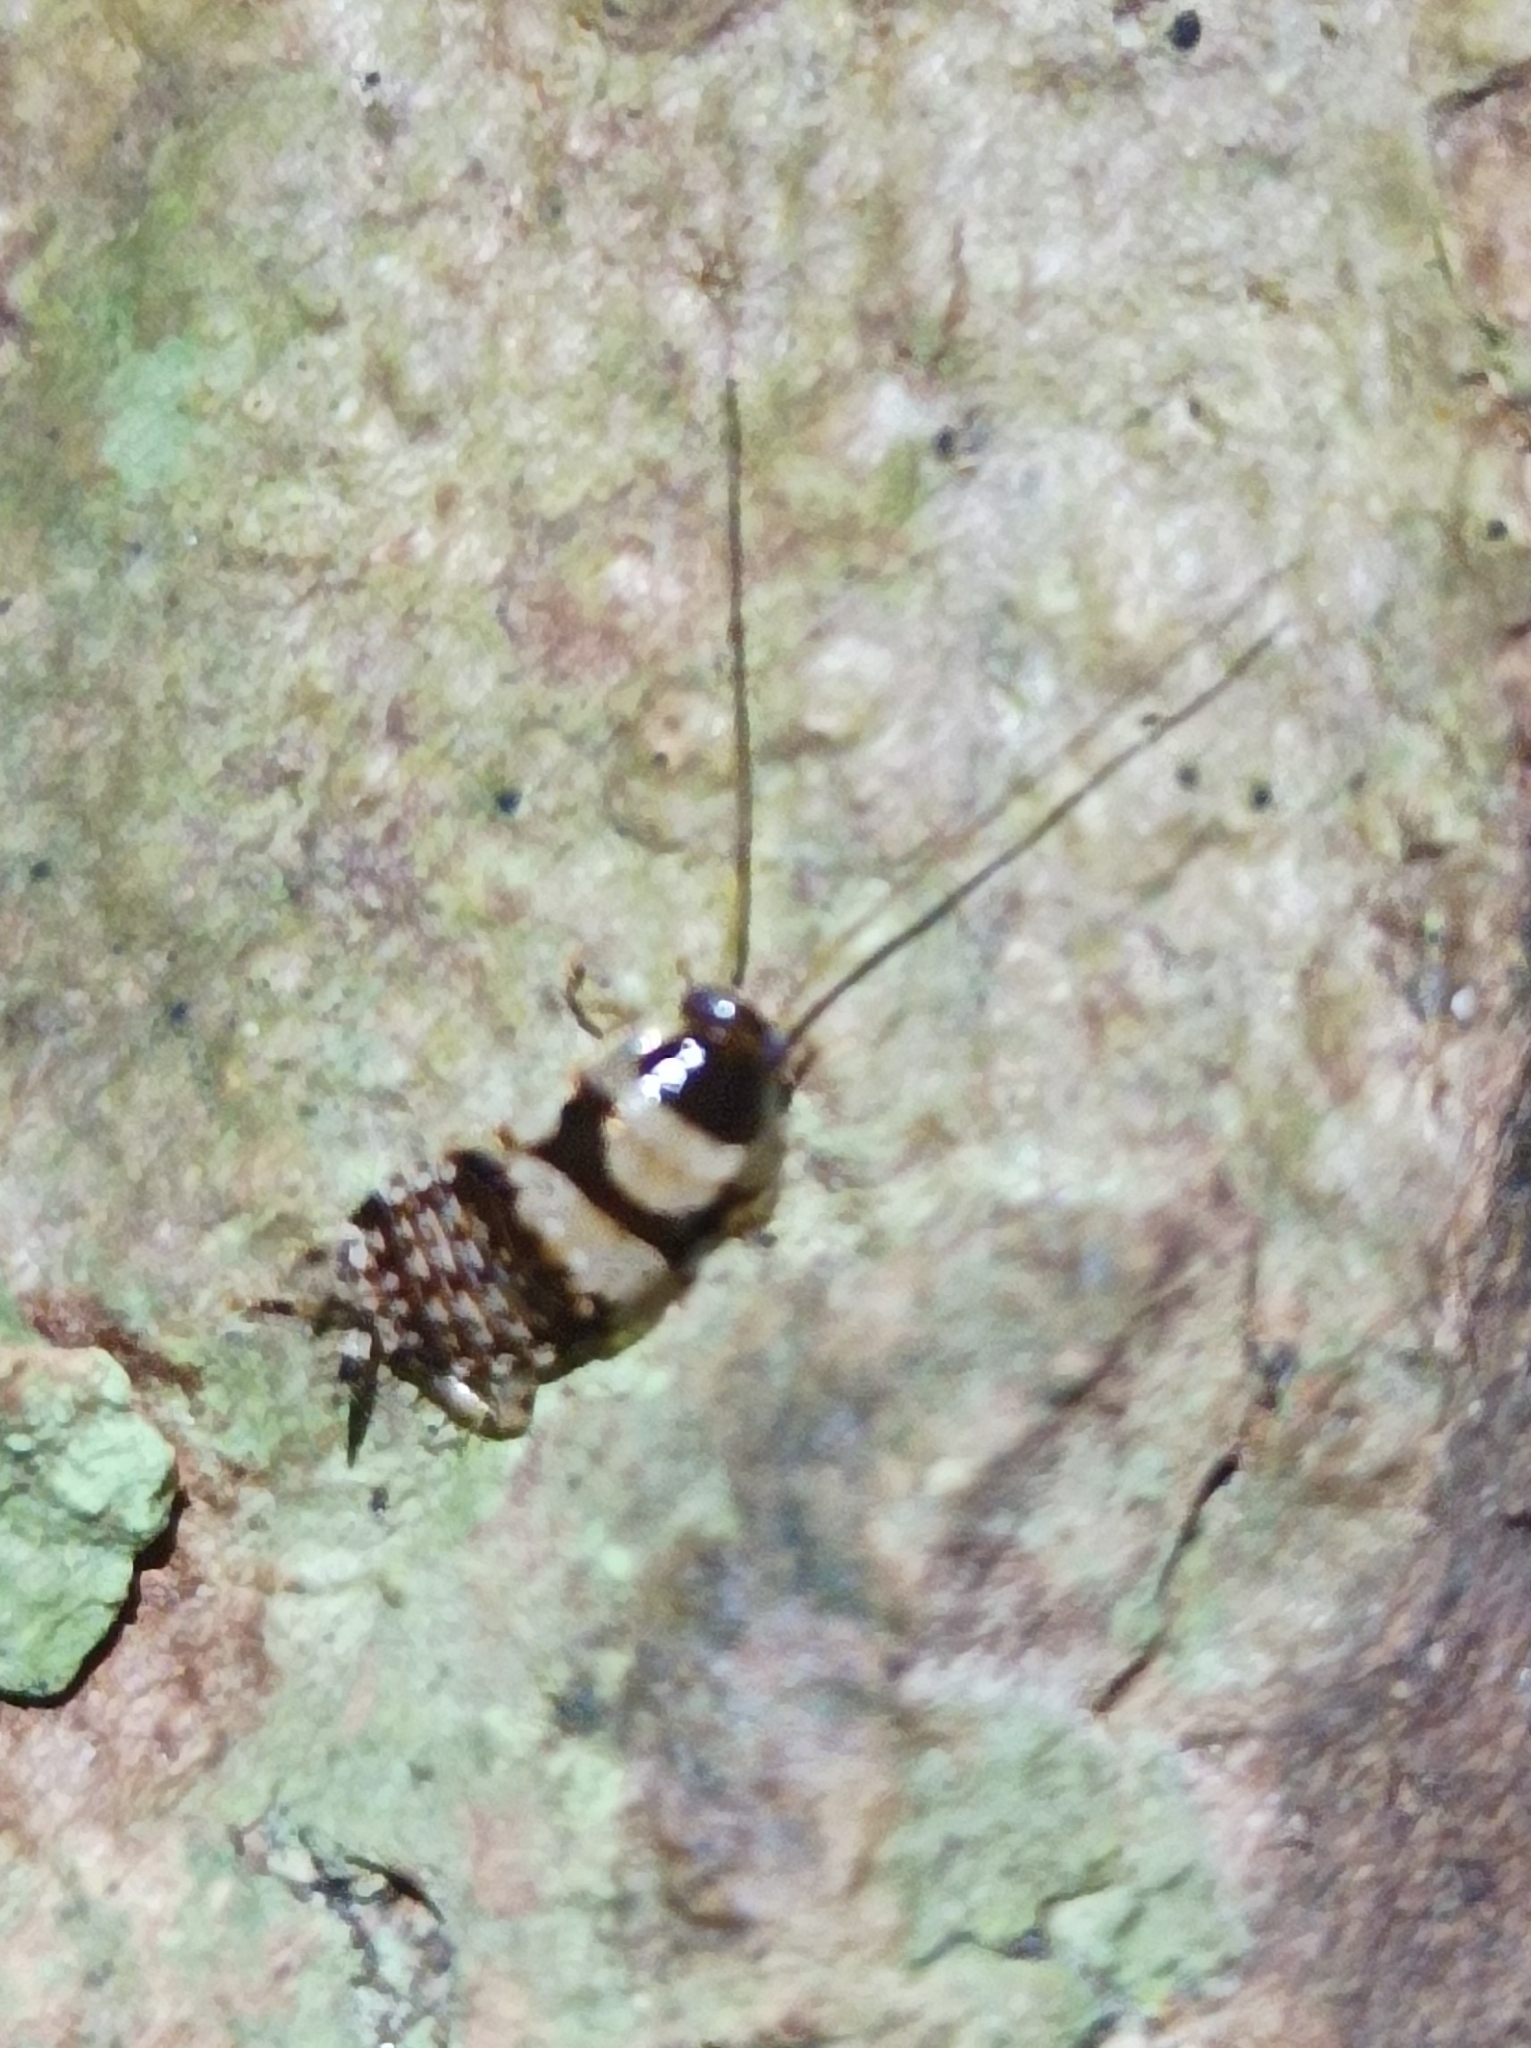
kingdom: Animalia
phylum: Arthropoda
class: Insecta
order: Blattodea
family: Ectobiidae
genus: Balta
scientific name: Balta notulata
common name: Cockroach
